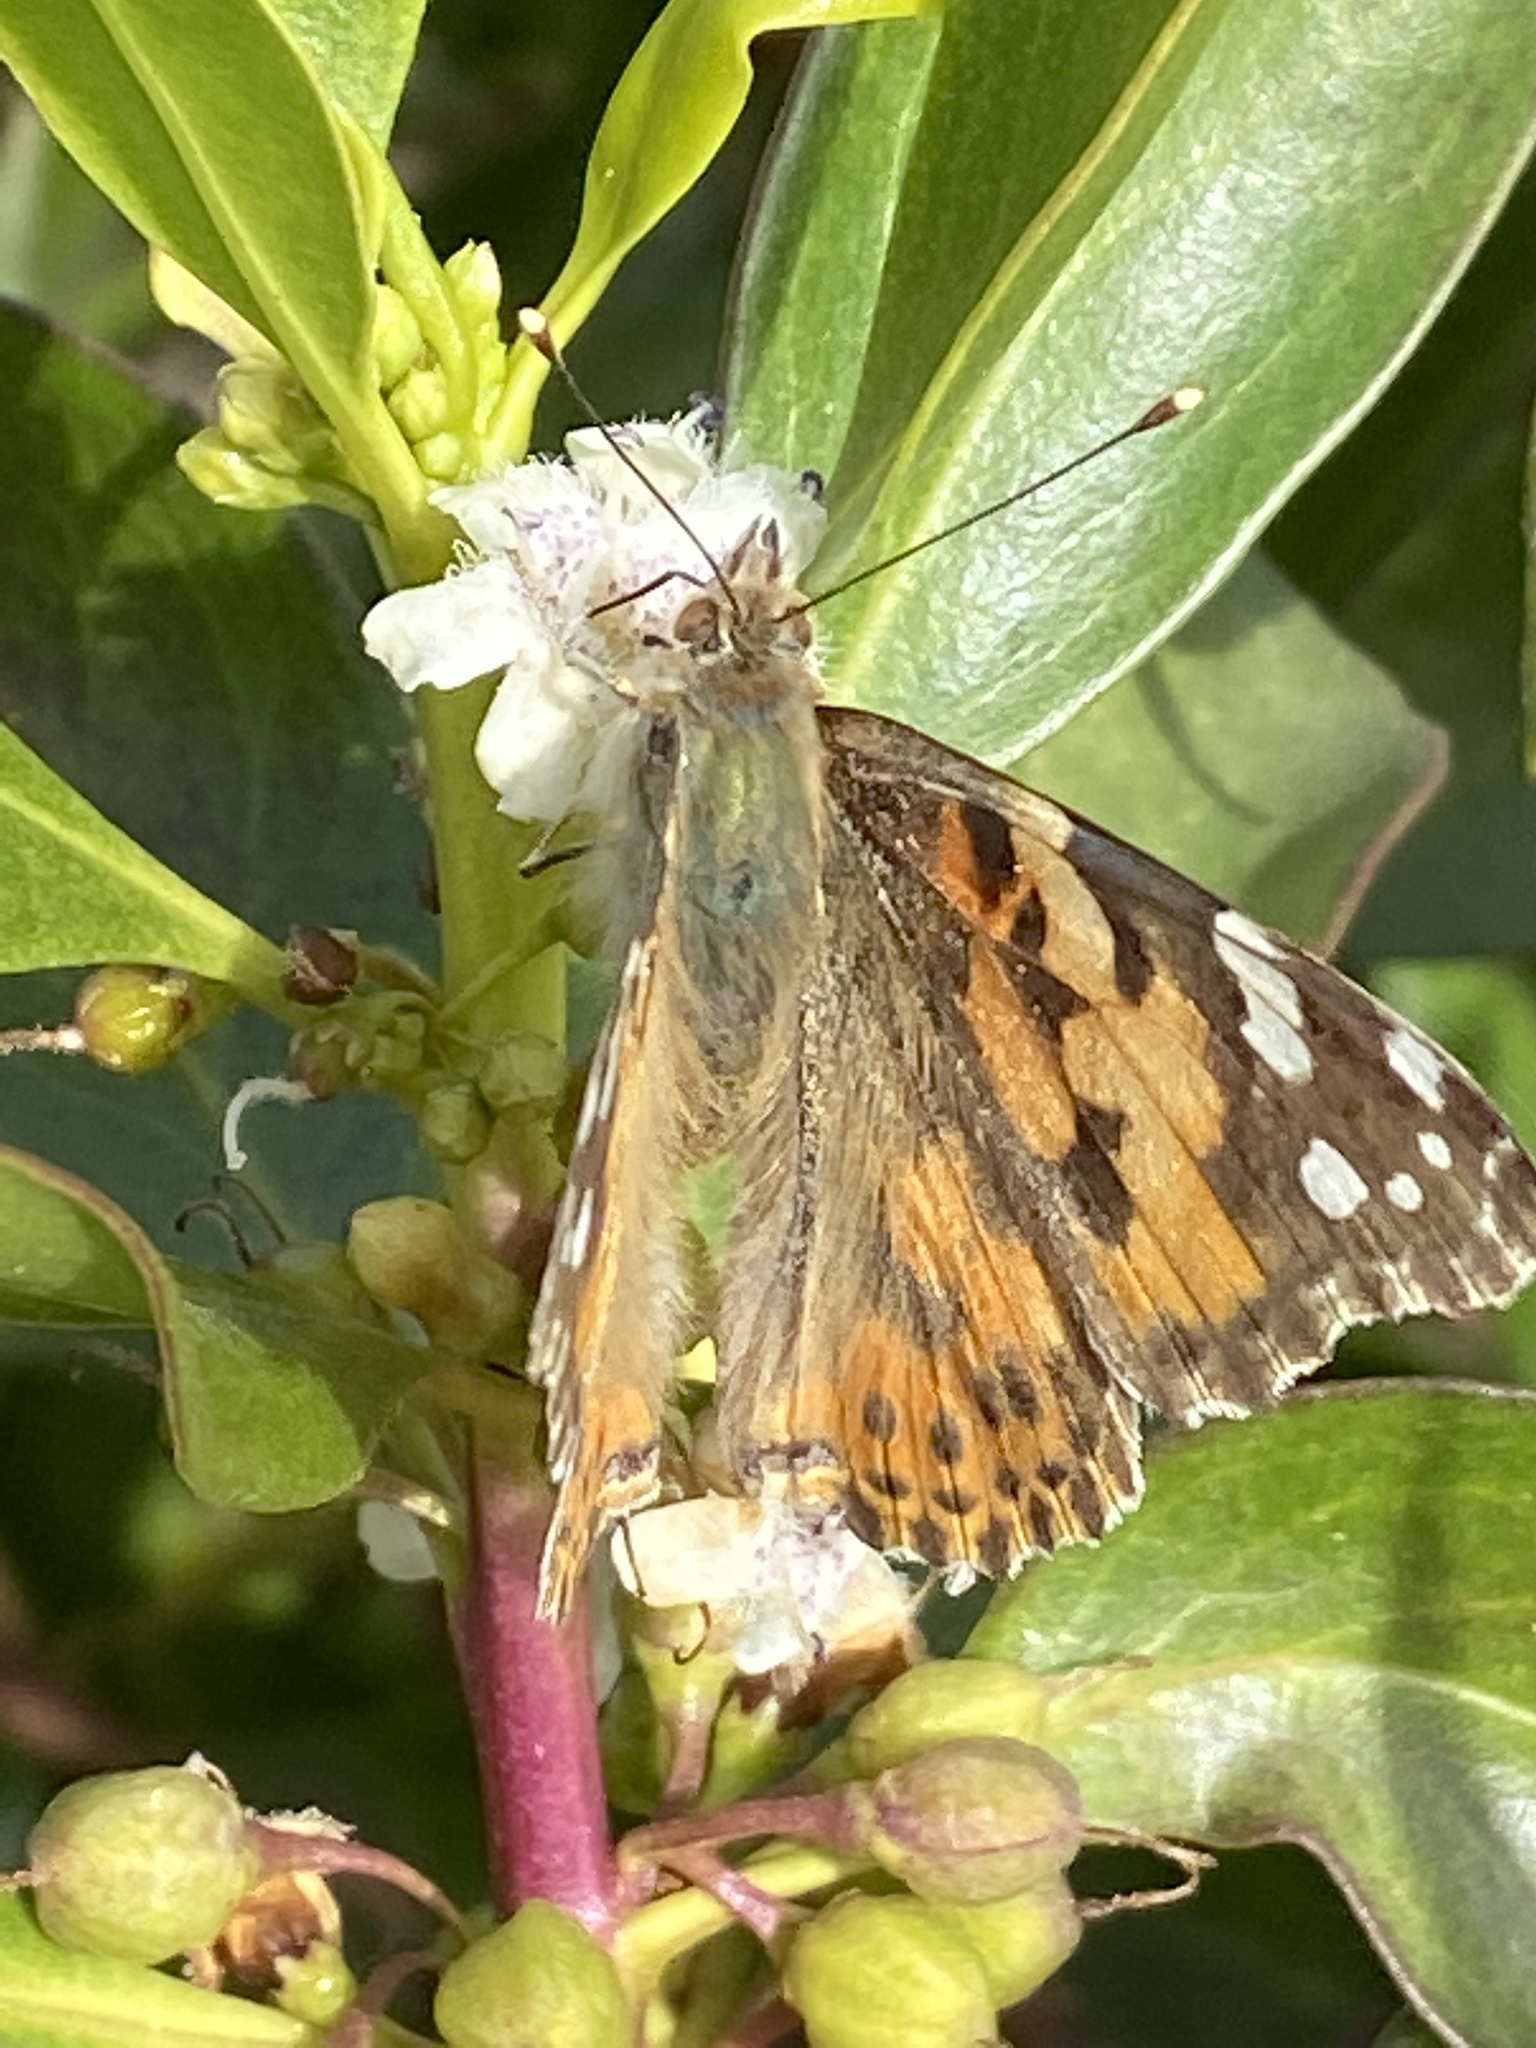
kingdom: Animalia
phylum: Arthropoda
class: Insecta
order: Lepidoptera
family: Nymphalidae
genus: Vanessa
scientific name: Vanessa cardui
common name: Painted lady
